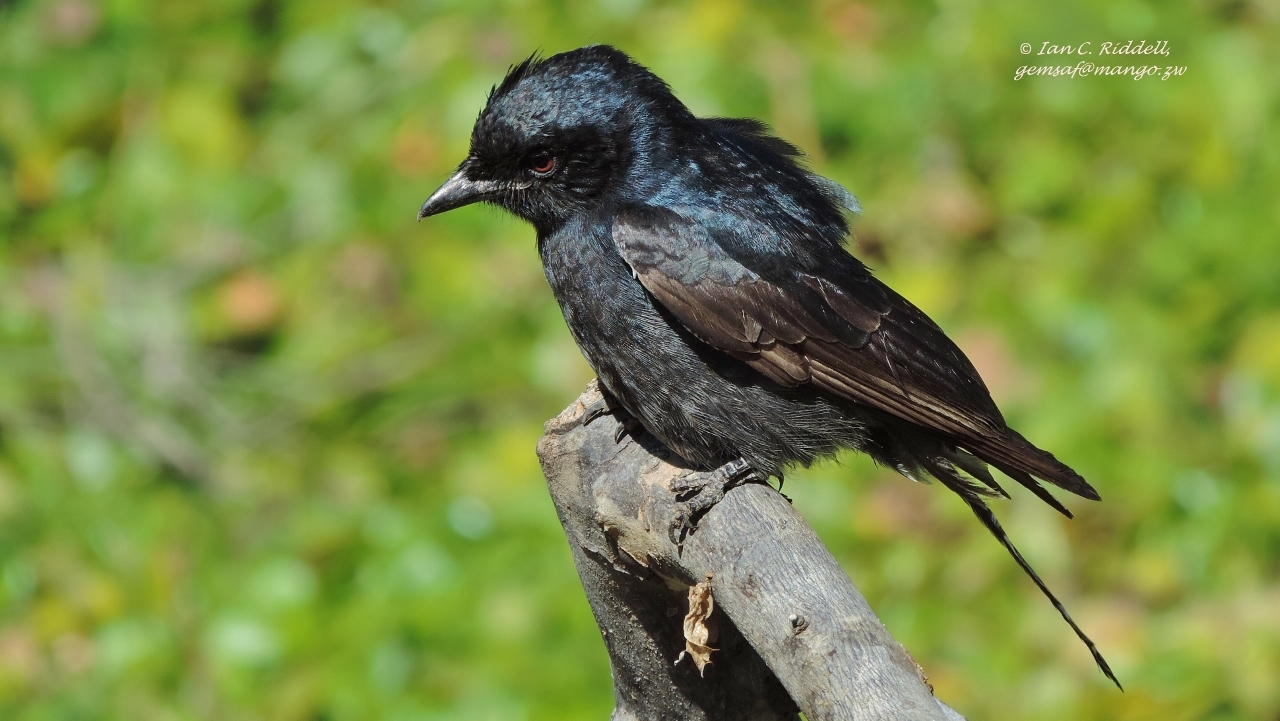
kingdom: Animalia
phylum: Chordata
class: Aves
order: Passeriformes
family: Dicruridae
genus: Dicrurus
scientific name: Dicrurus adsimilis
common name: Fork-tailed drongo
